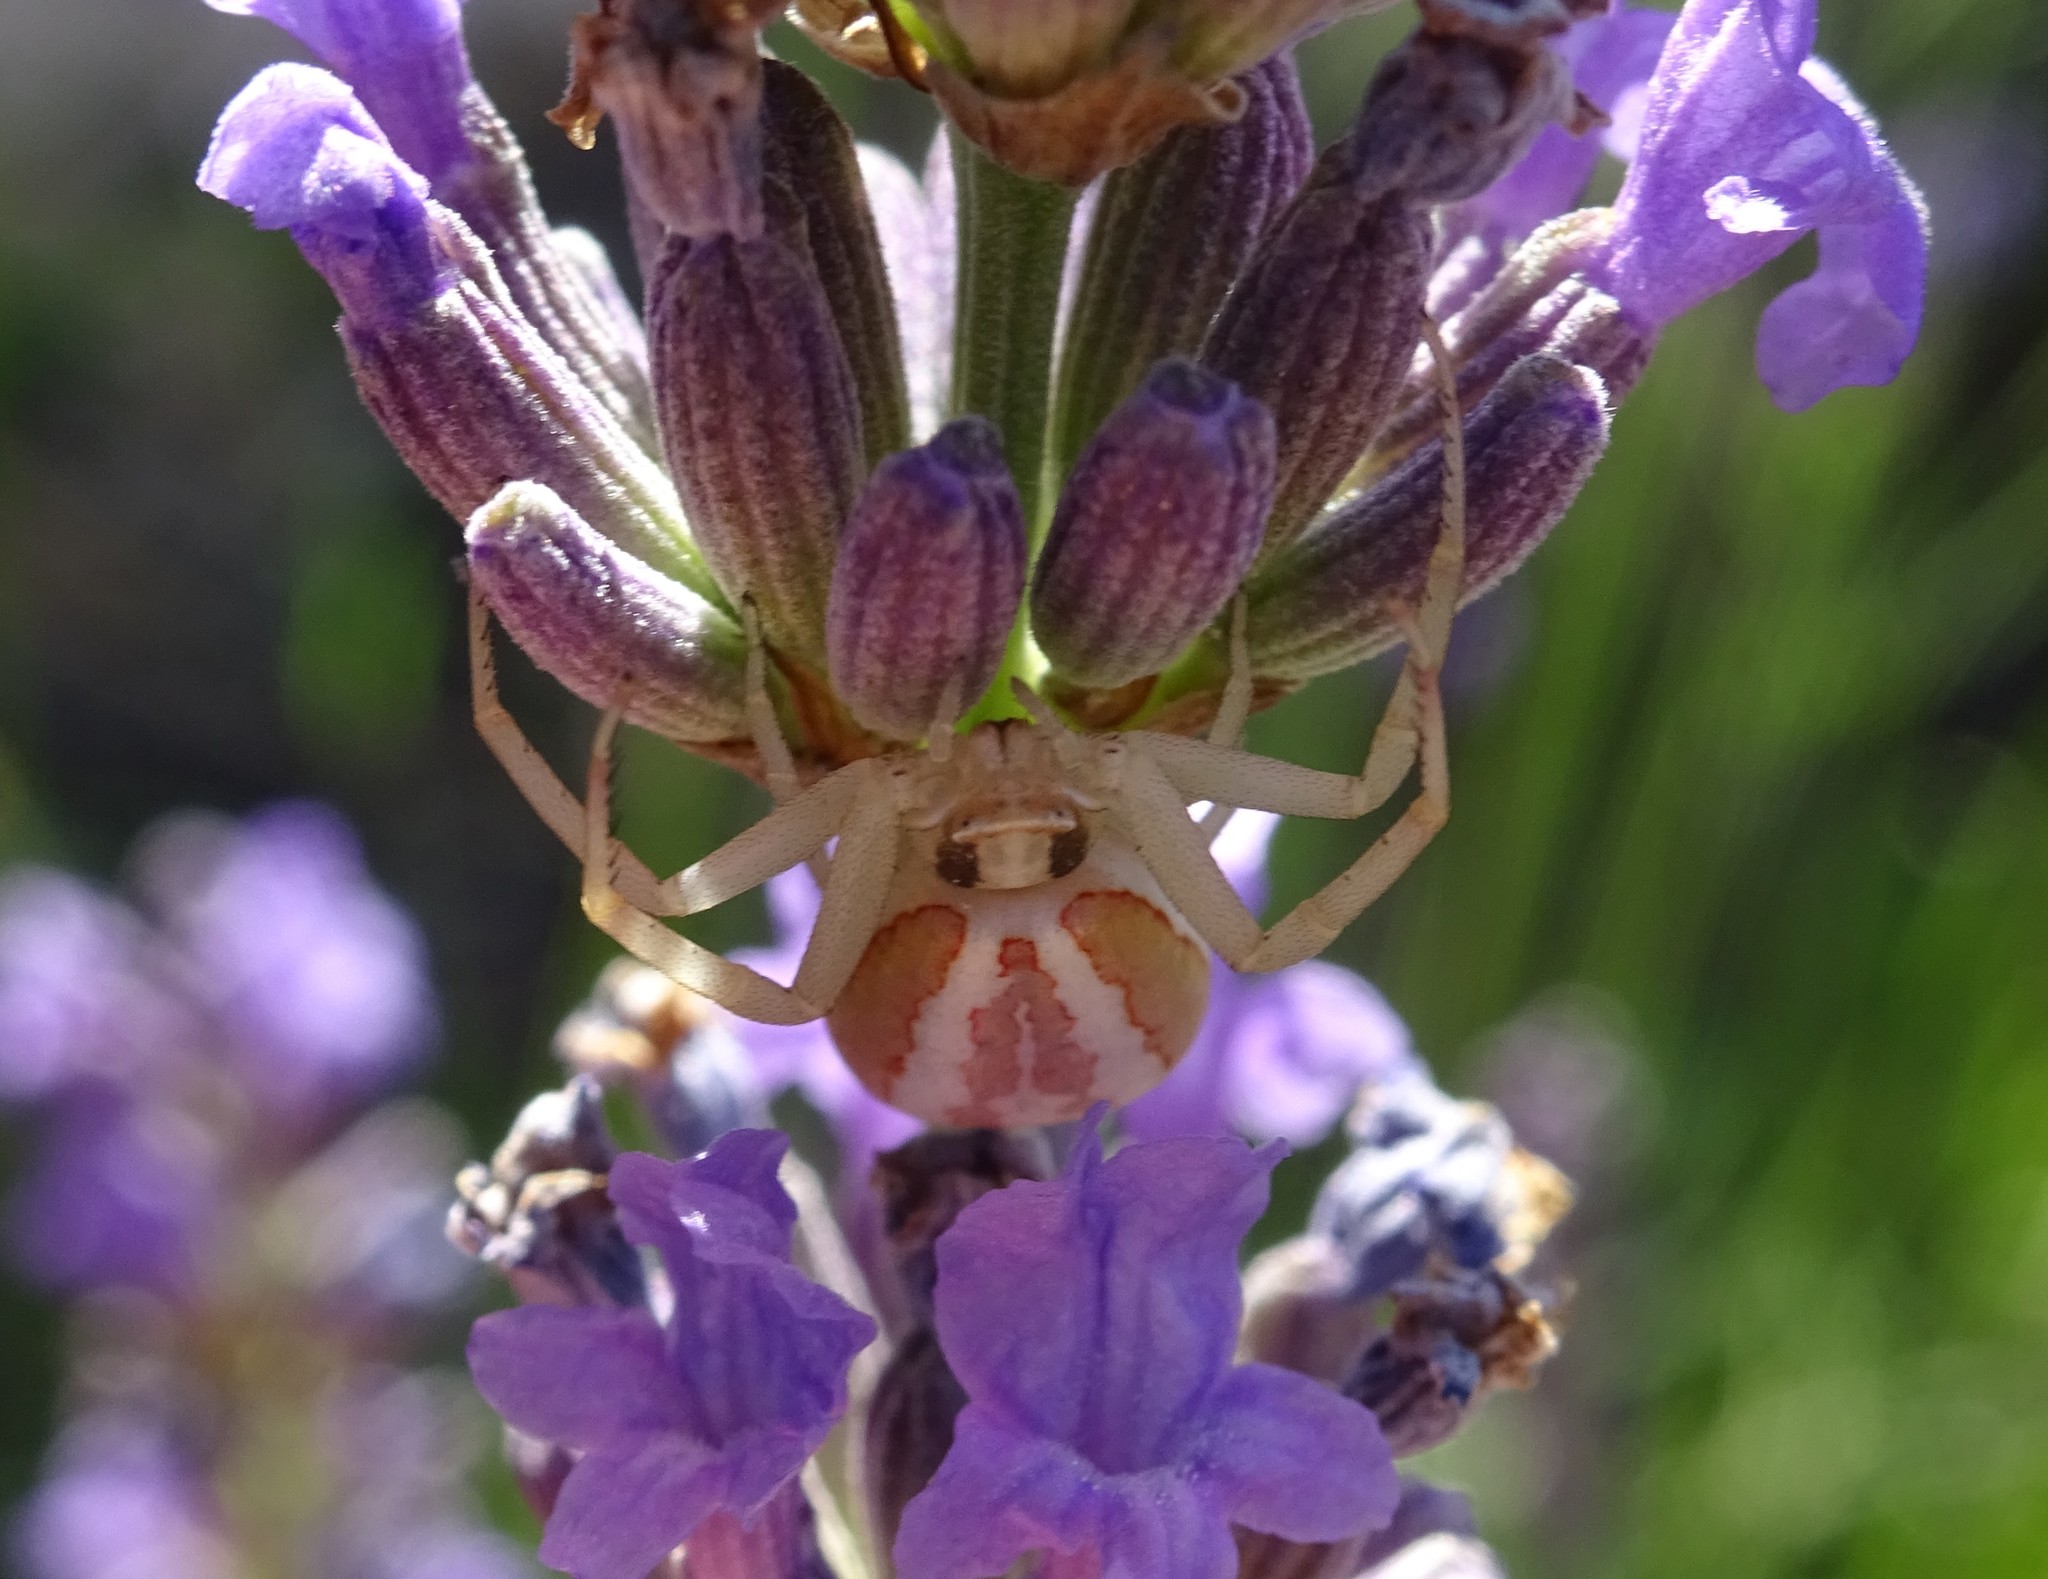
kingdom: Animalia
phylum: Arthropoda
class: Arachnida
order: Araneae
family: Thomisidae
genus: Runcinia
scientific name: Runcinia grammica
